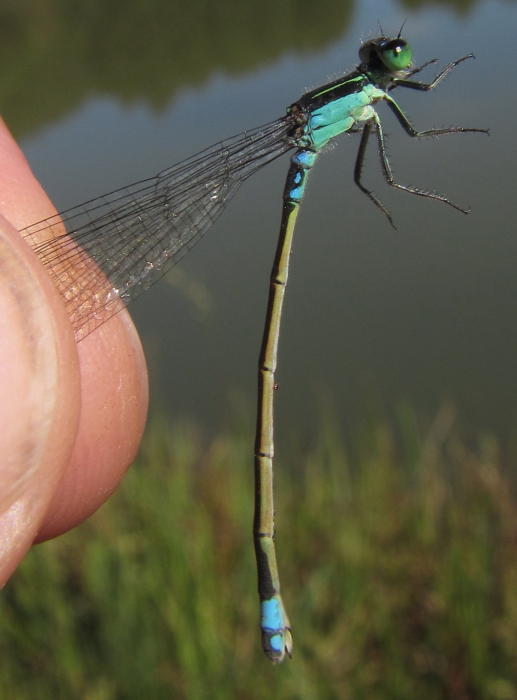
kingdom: Animalia
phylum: Arthropoda
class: Insecta
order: Odonata
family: Coenagrionidae
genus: Ischnura
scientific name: Ischnura senegalensis
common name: Tropical bluetail
